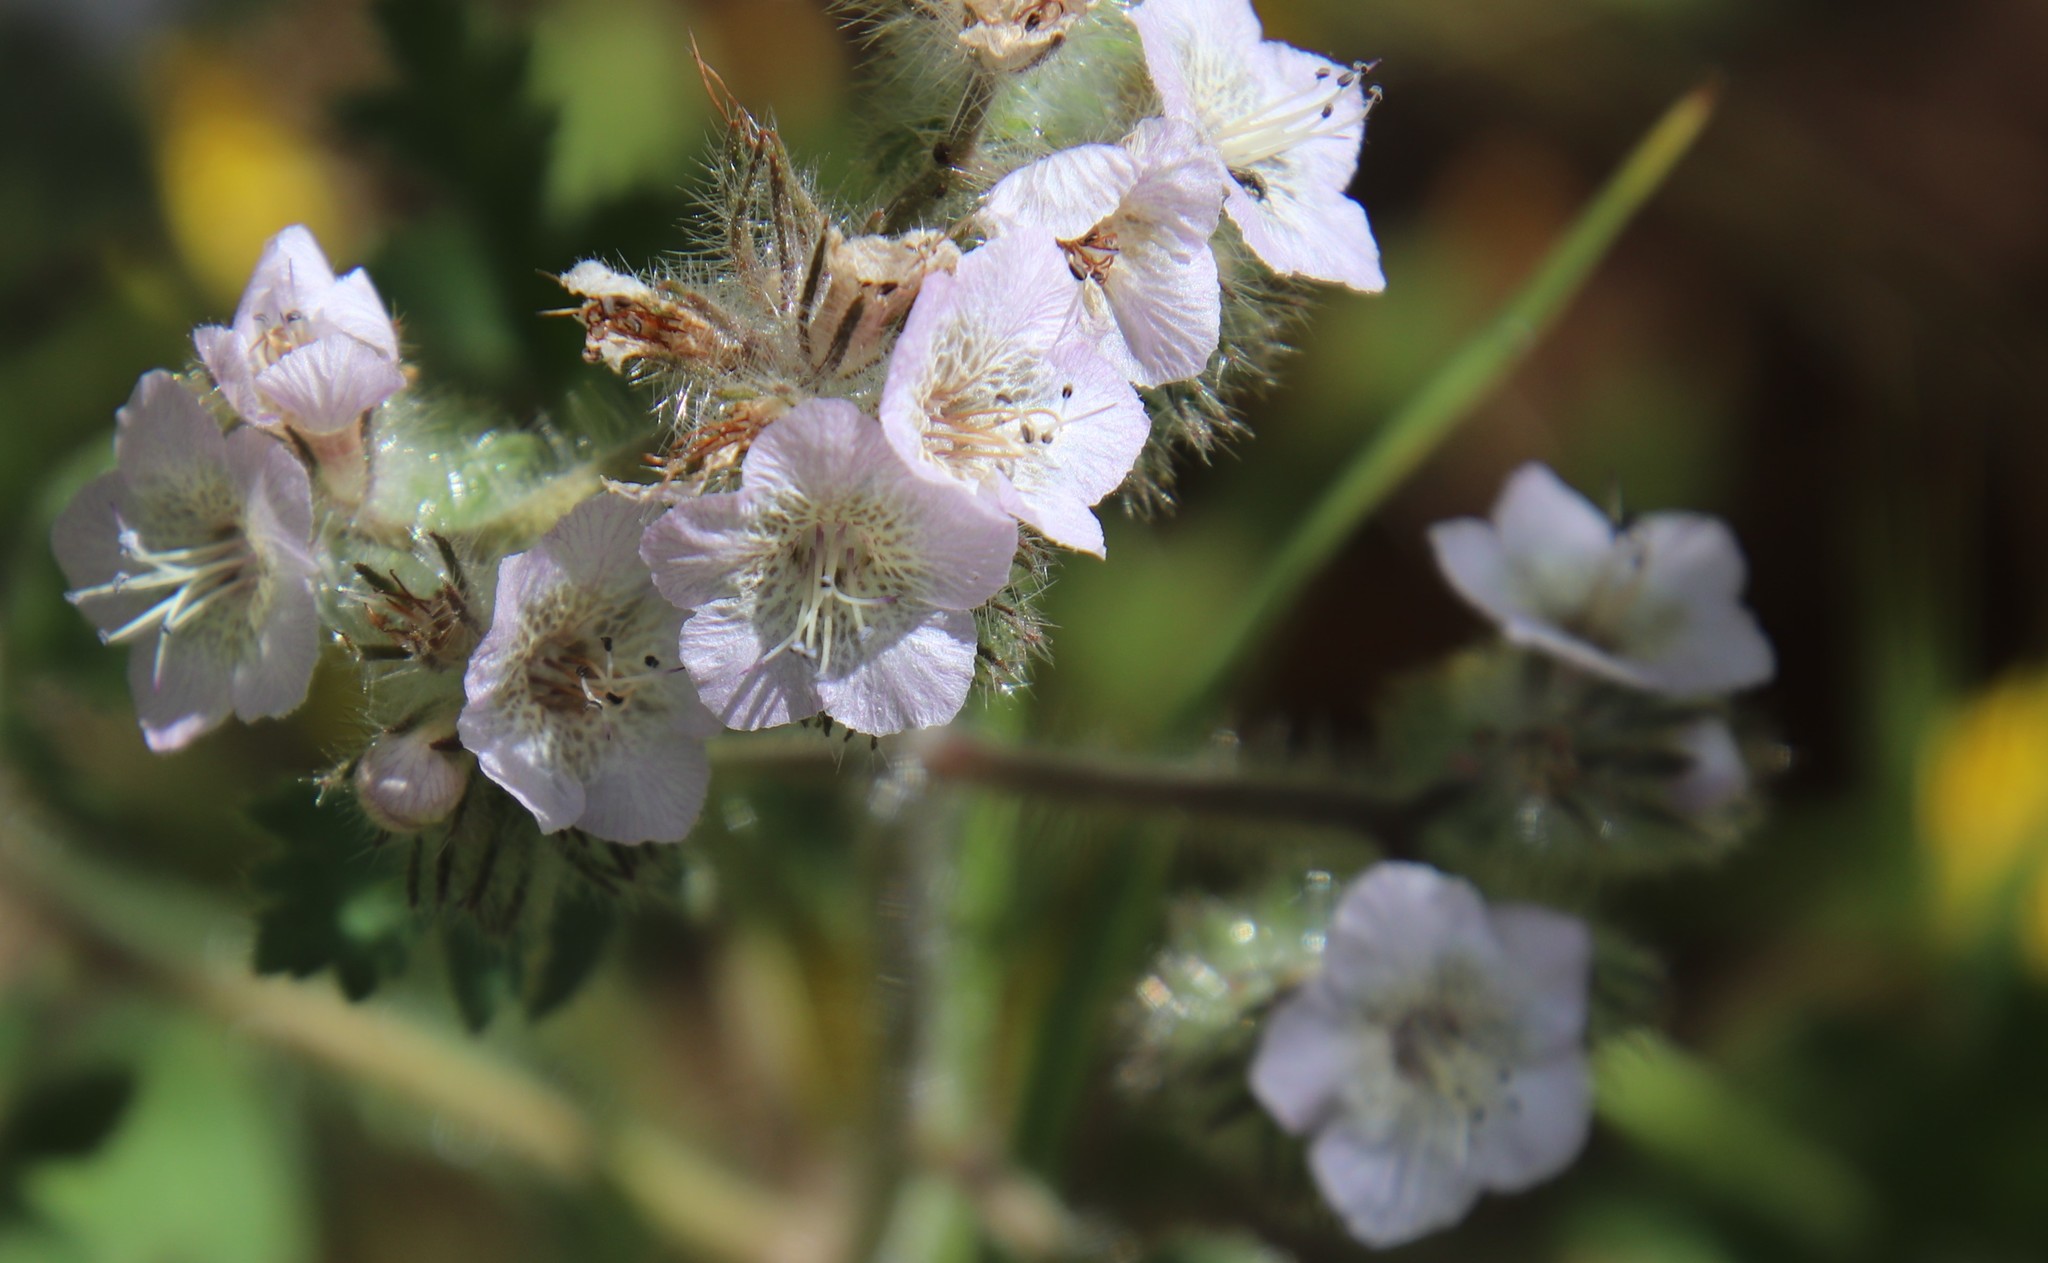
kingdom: Plantae
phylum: Tracheophyta
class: Magnoliopsida
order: Boraginales
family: Hydrophyllaceae
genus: Phacelia
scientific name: Phacelia cicutaria
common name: Caterpillar phacelia
